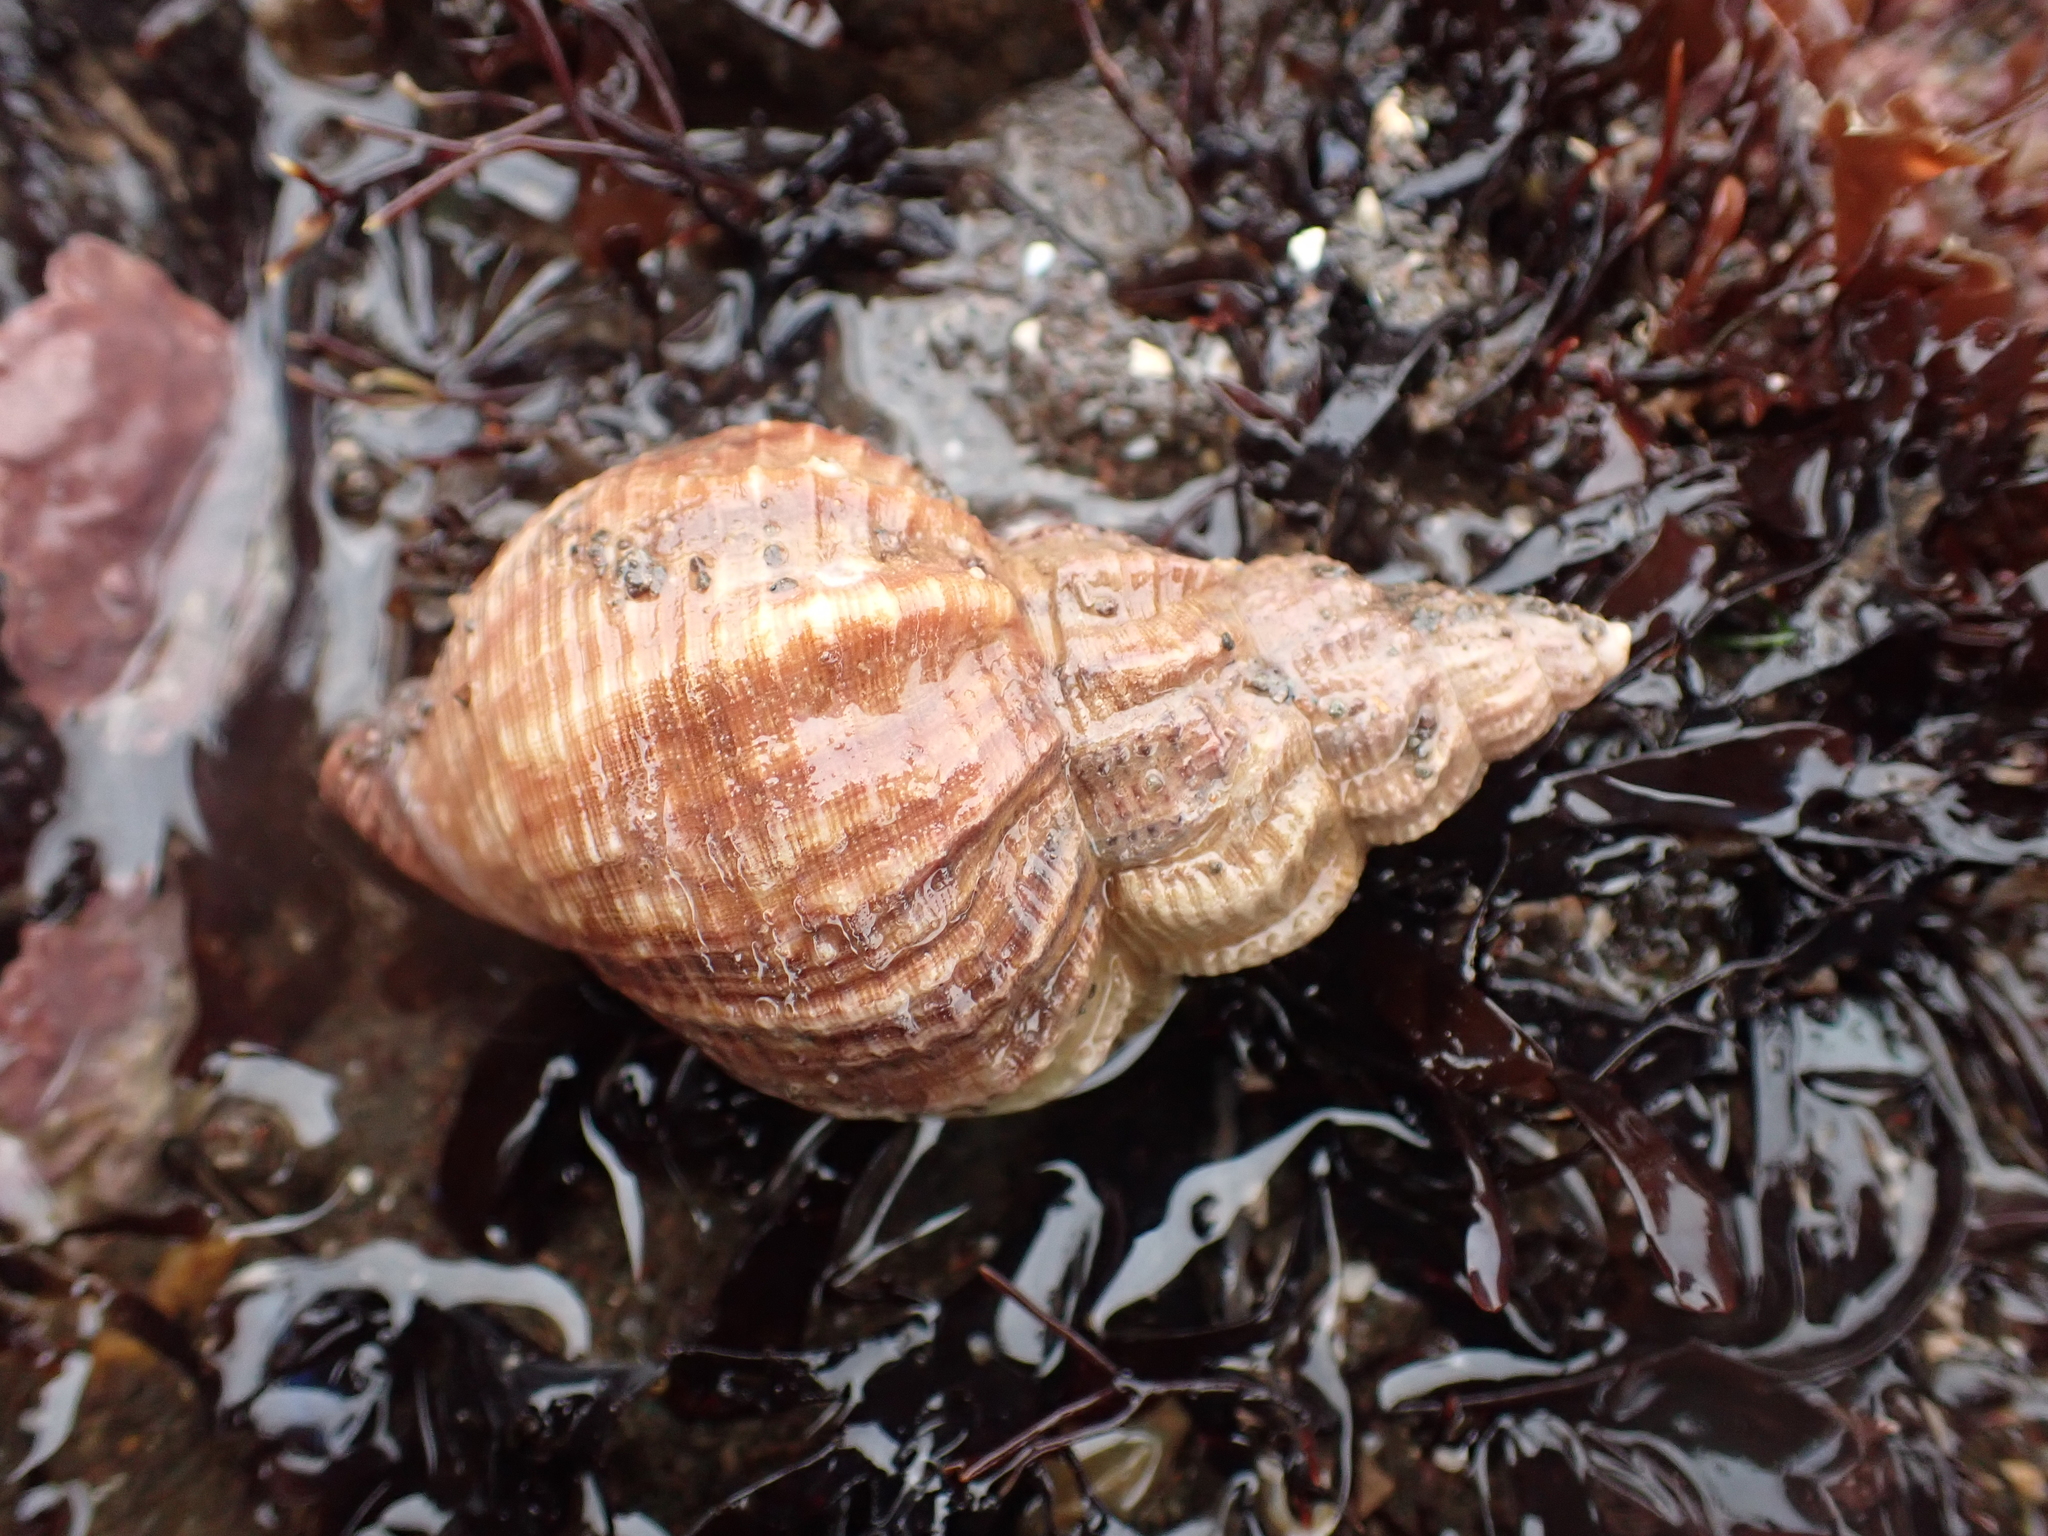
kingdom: Animalia
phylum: Mollusca
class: Gastropoda
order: Neogastropoda
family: Buccinidae
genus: Buccinum
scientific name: Buccinum undatum
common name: Common whelk
